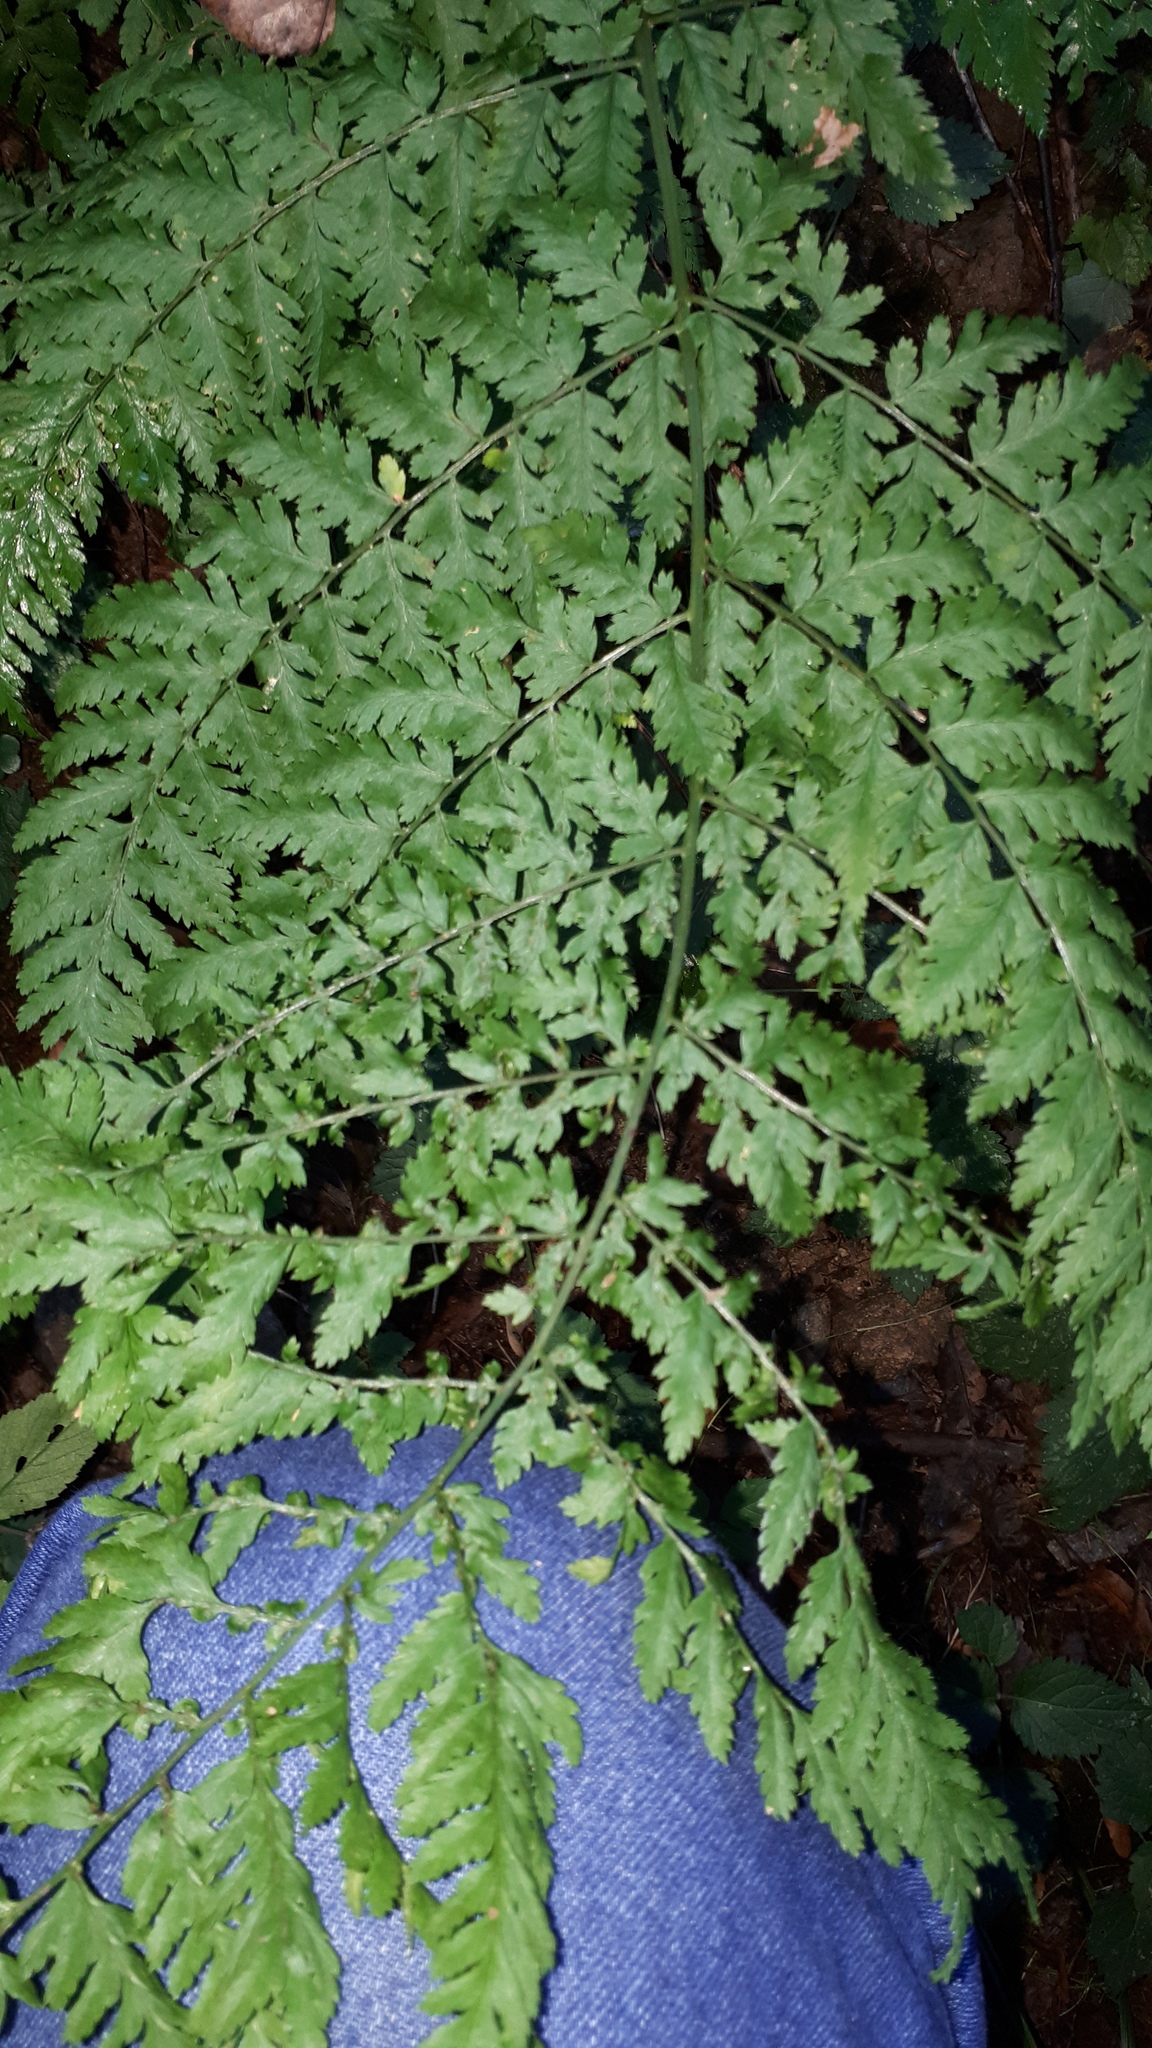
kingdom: Plantae
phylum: Tracheophyta
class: Polypodiopsida
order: Polypodiales
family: Dryopteridaceae
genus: Dryopteris
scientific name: Dryopteris dilatata
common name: Broad buckler-fern
